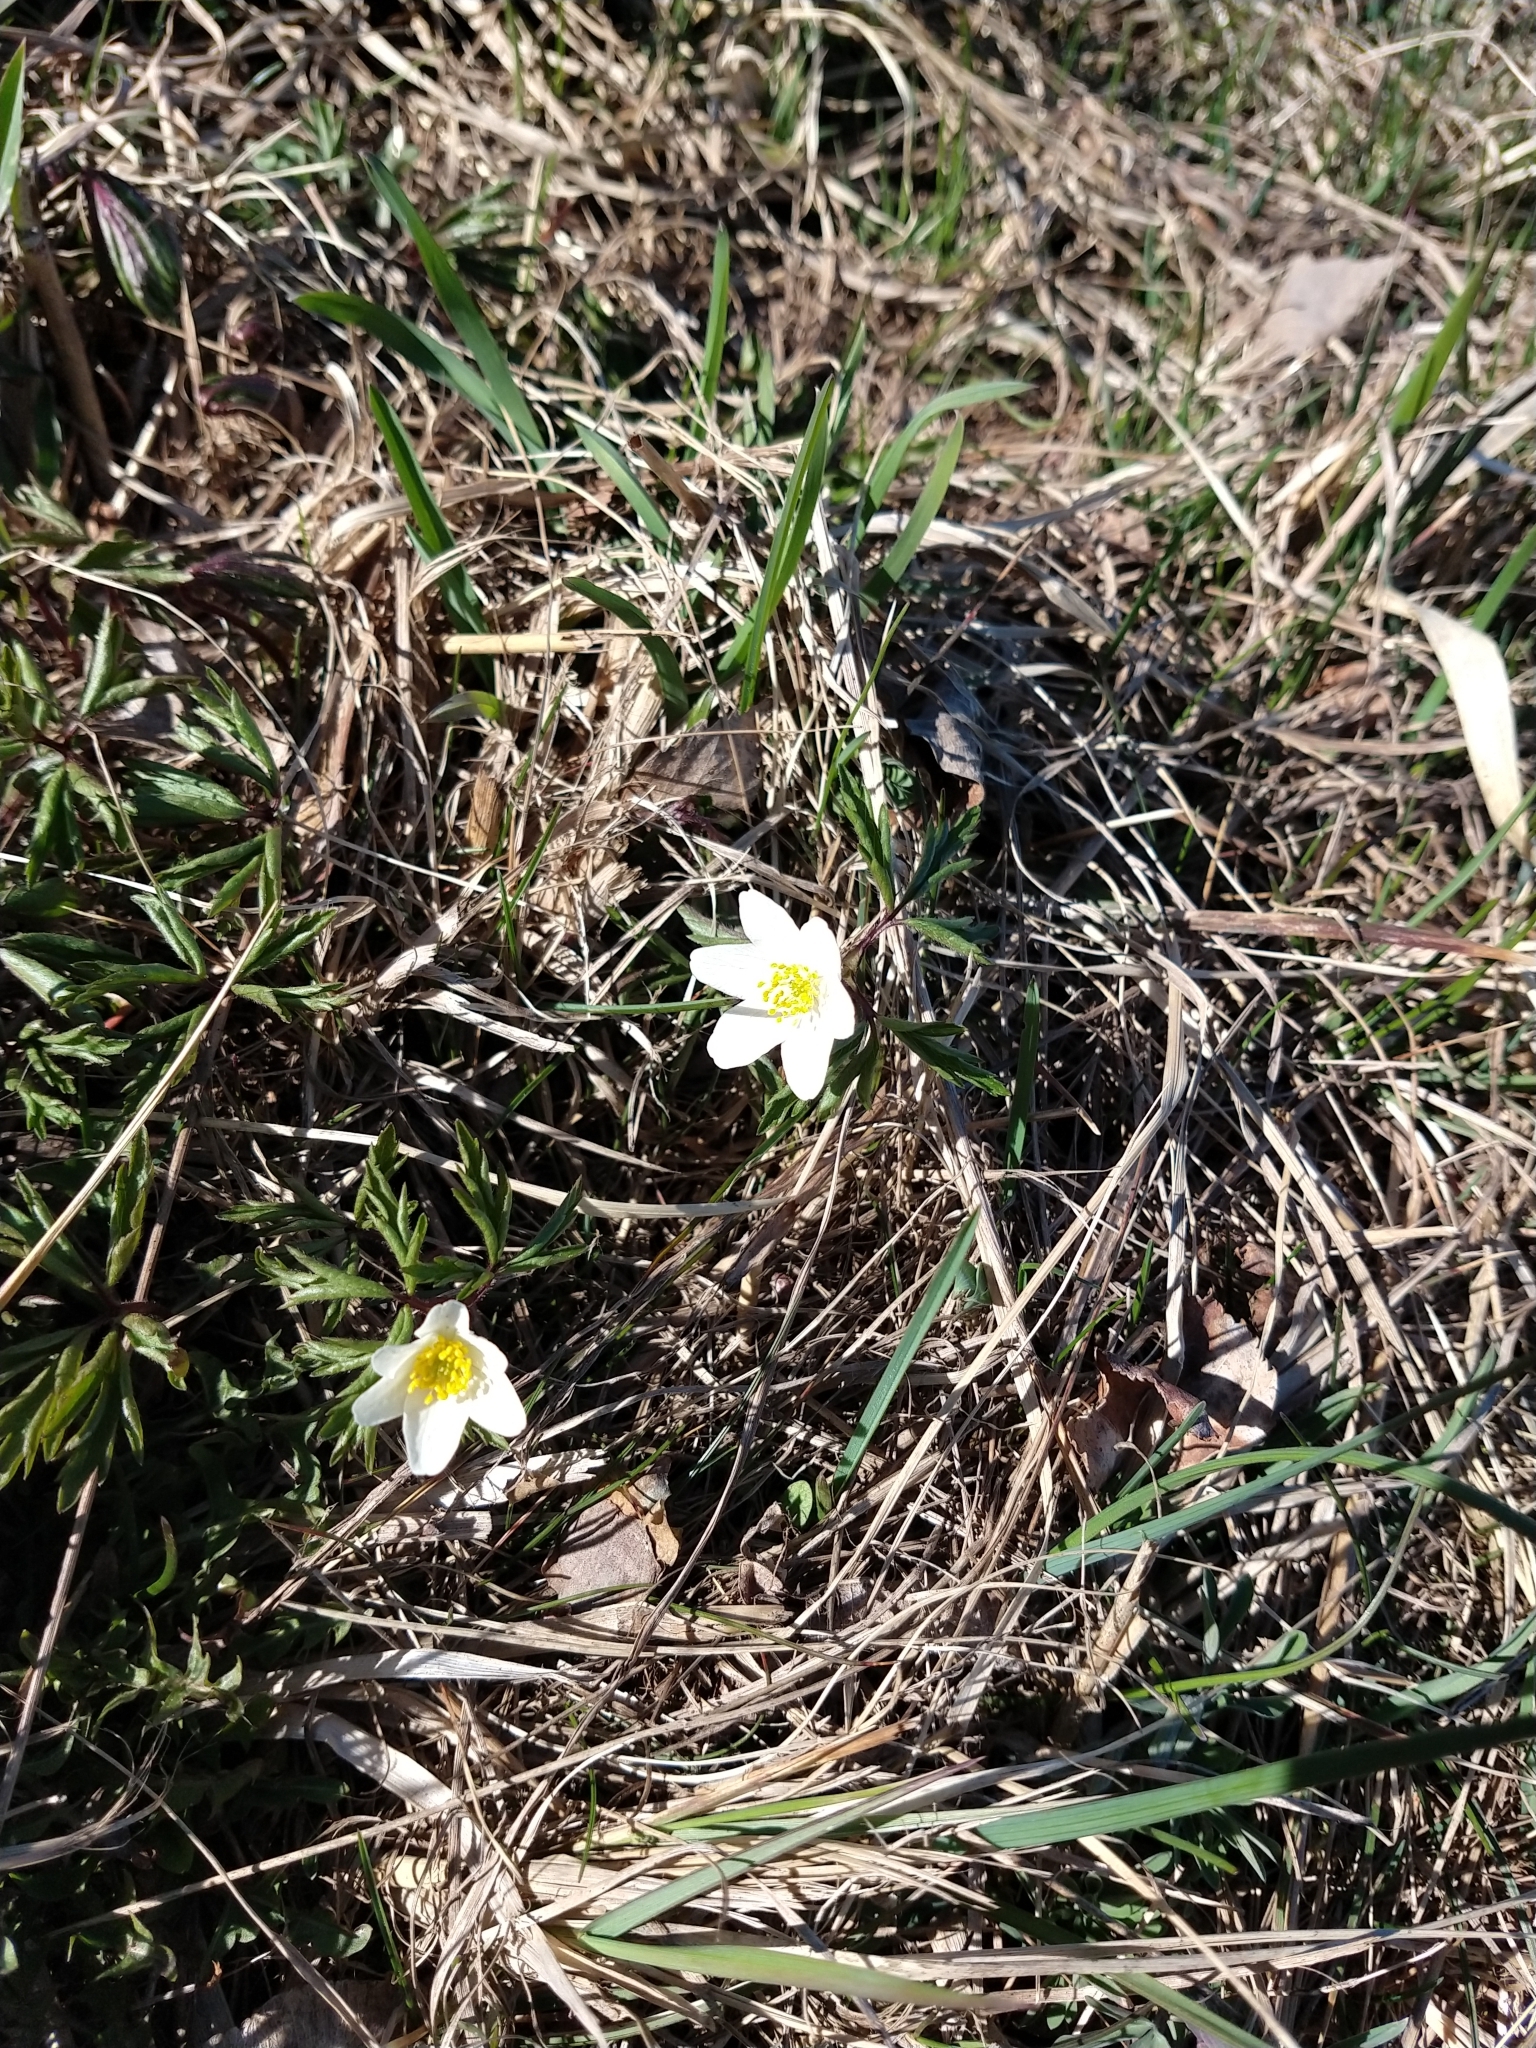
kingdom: Plantae
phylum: Tracheophyta
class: Magnoliopsida
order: Ranunculales
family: Ranunculaceae
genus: Anemone
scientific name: Anemone nemorosa
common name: Wood anemone
